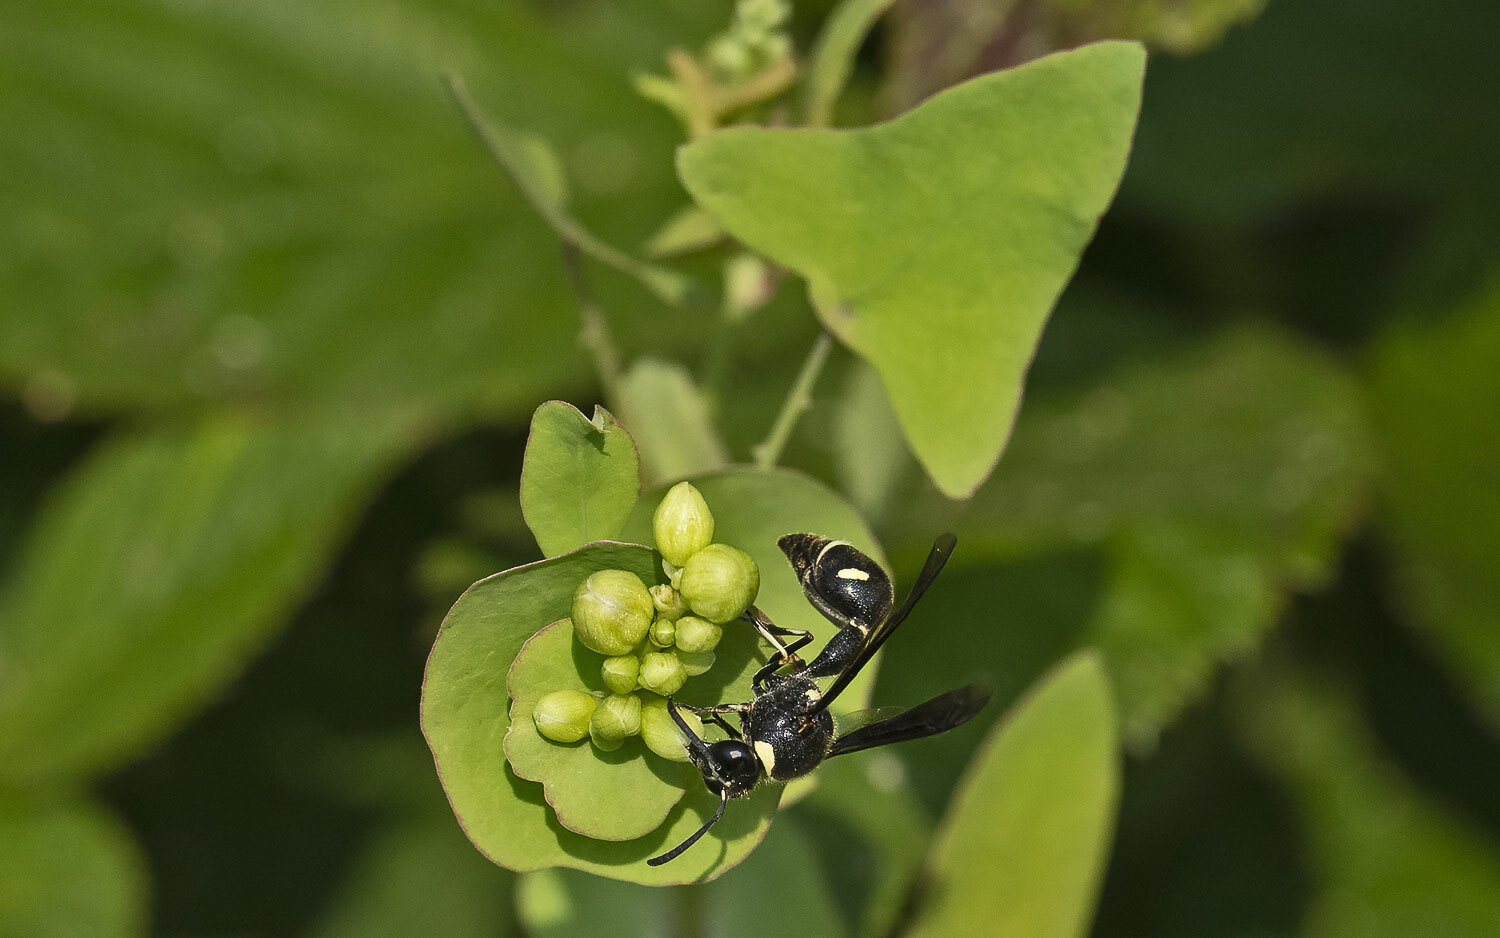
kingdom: Animalia
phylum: Arthropoda
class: Insecta
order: Hymenoptera
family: Vespidae
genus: Eumenes
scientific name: Eumenes fraternus
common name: Fraternal potter wasp
